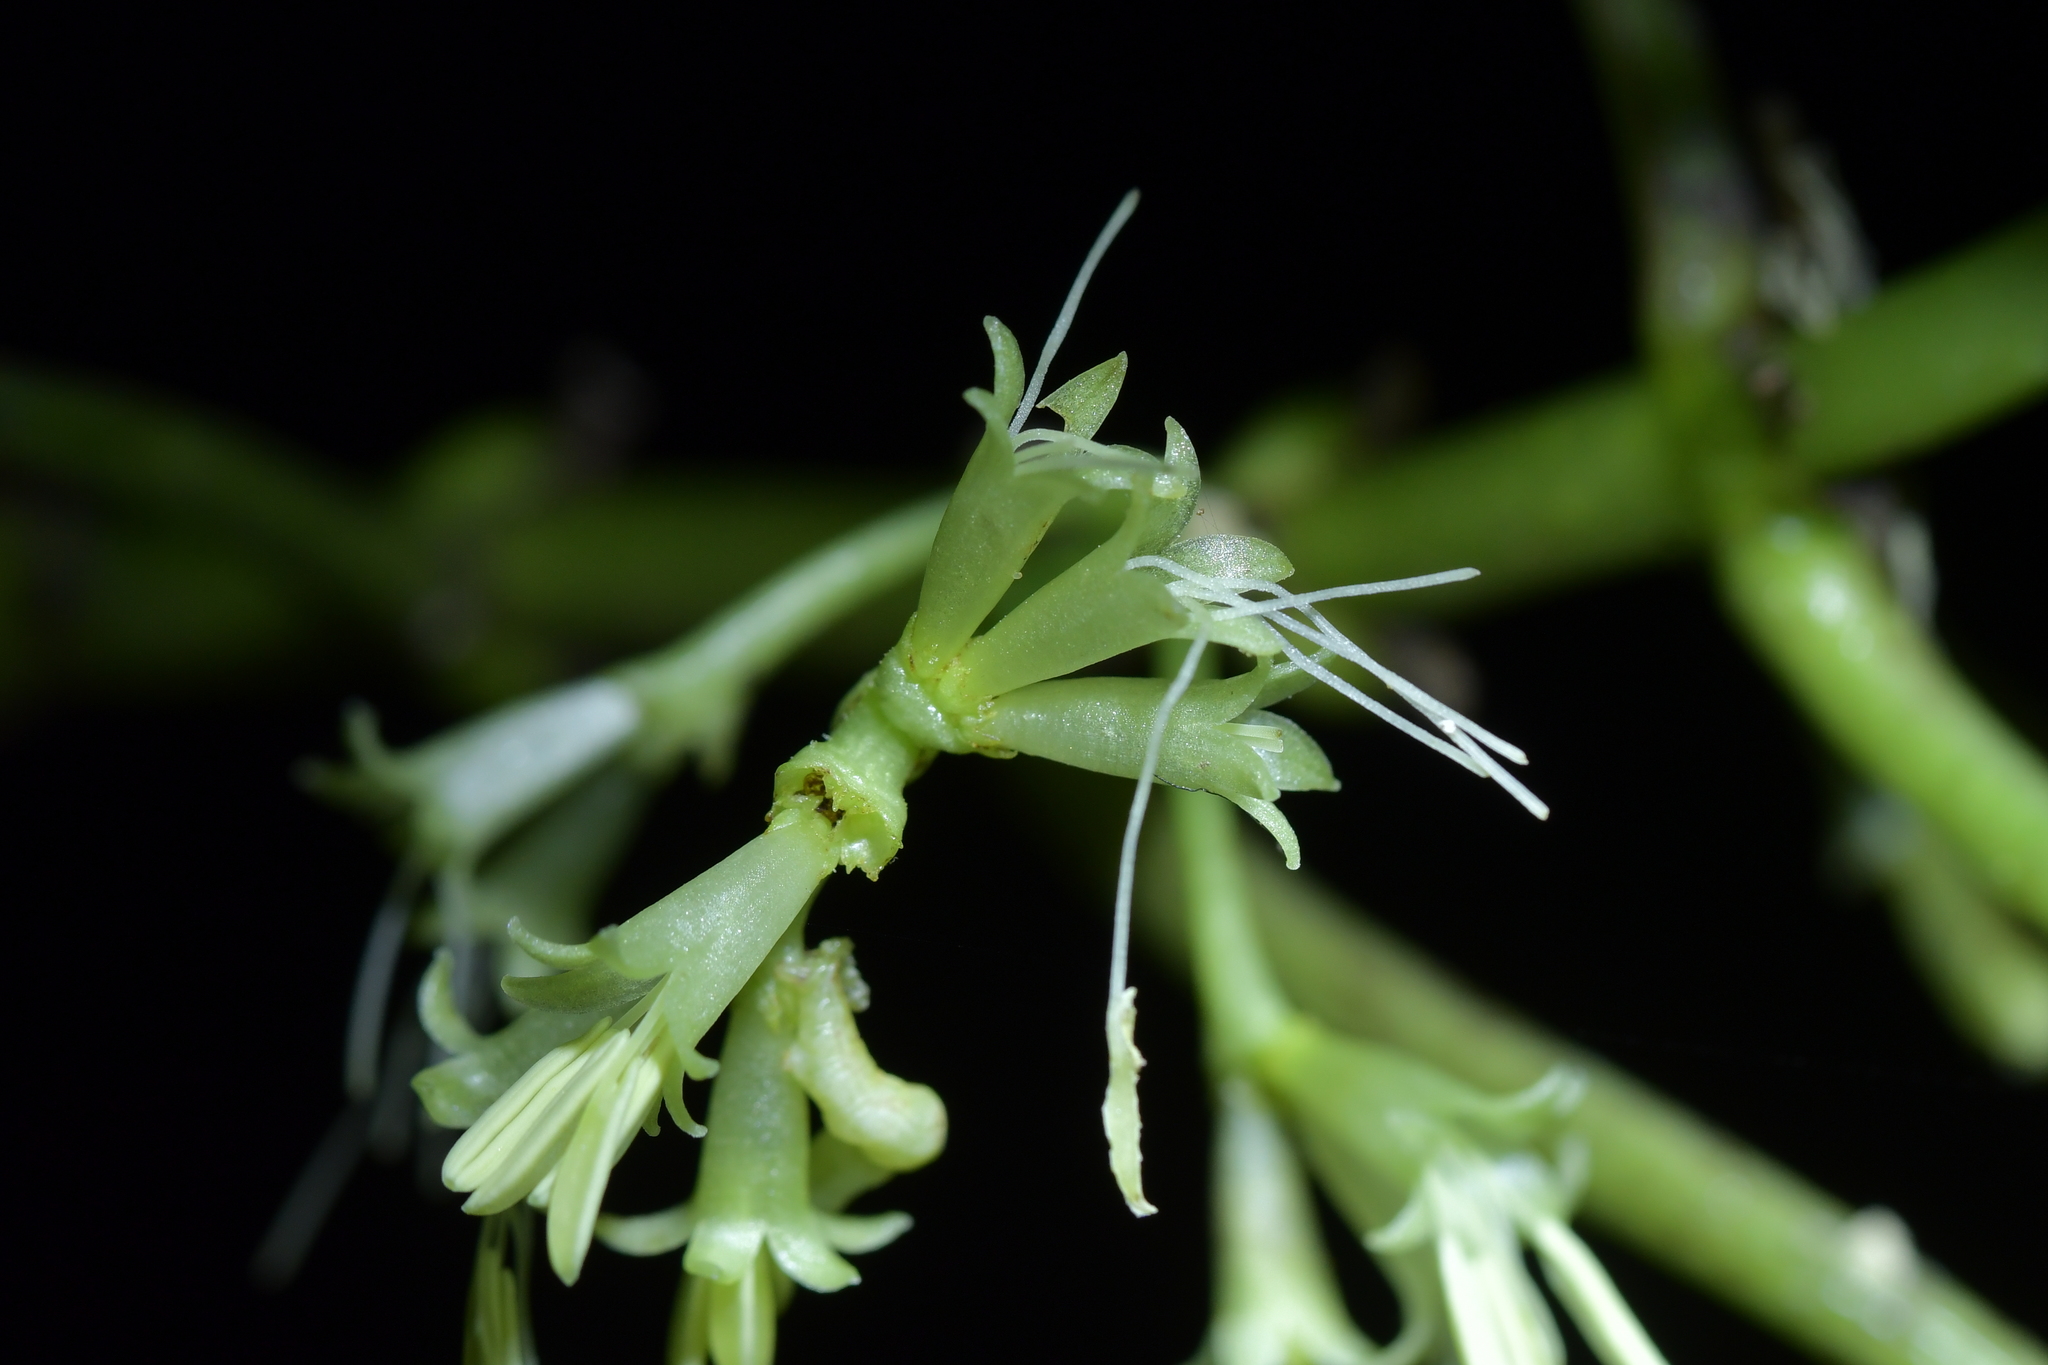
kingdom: Plantae
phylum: Tracheophyta
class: Magnoliopsida
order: Gentianales
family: Rubiaceae
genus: Coprosma
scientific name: Coprosma autumnalis
